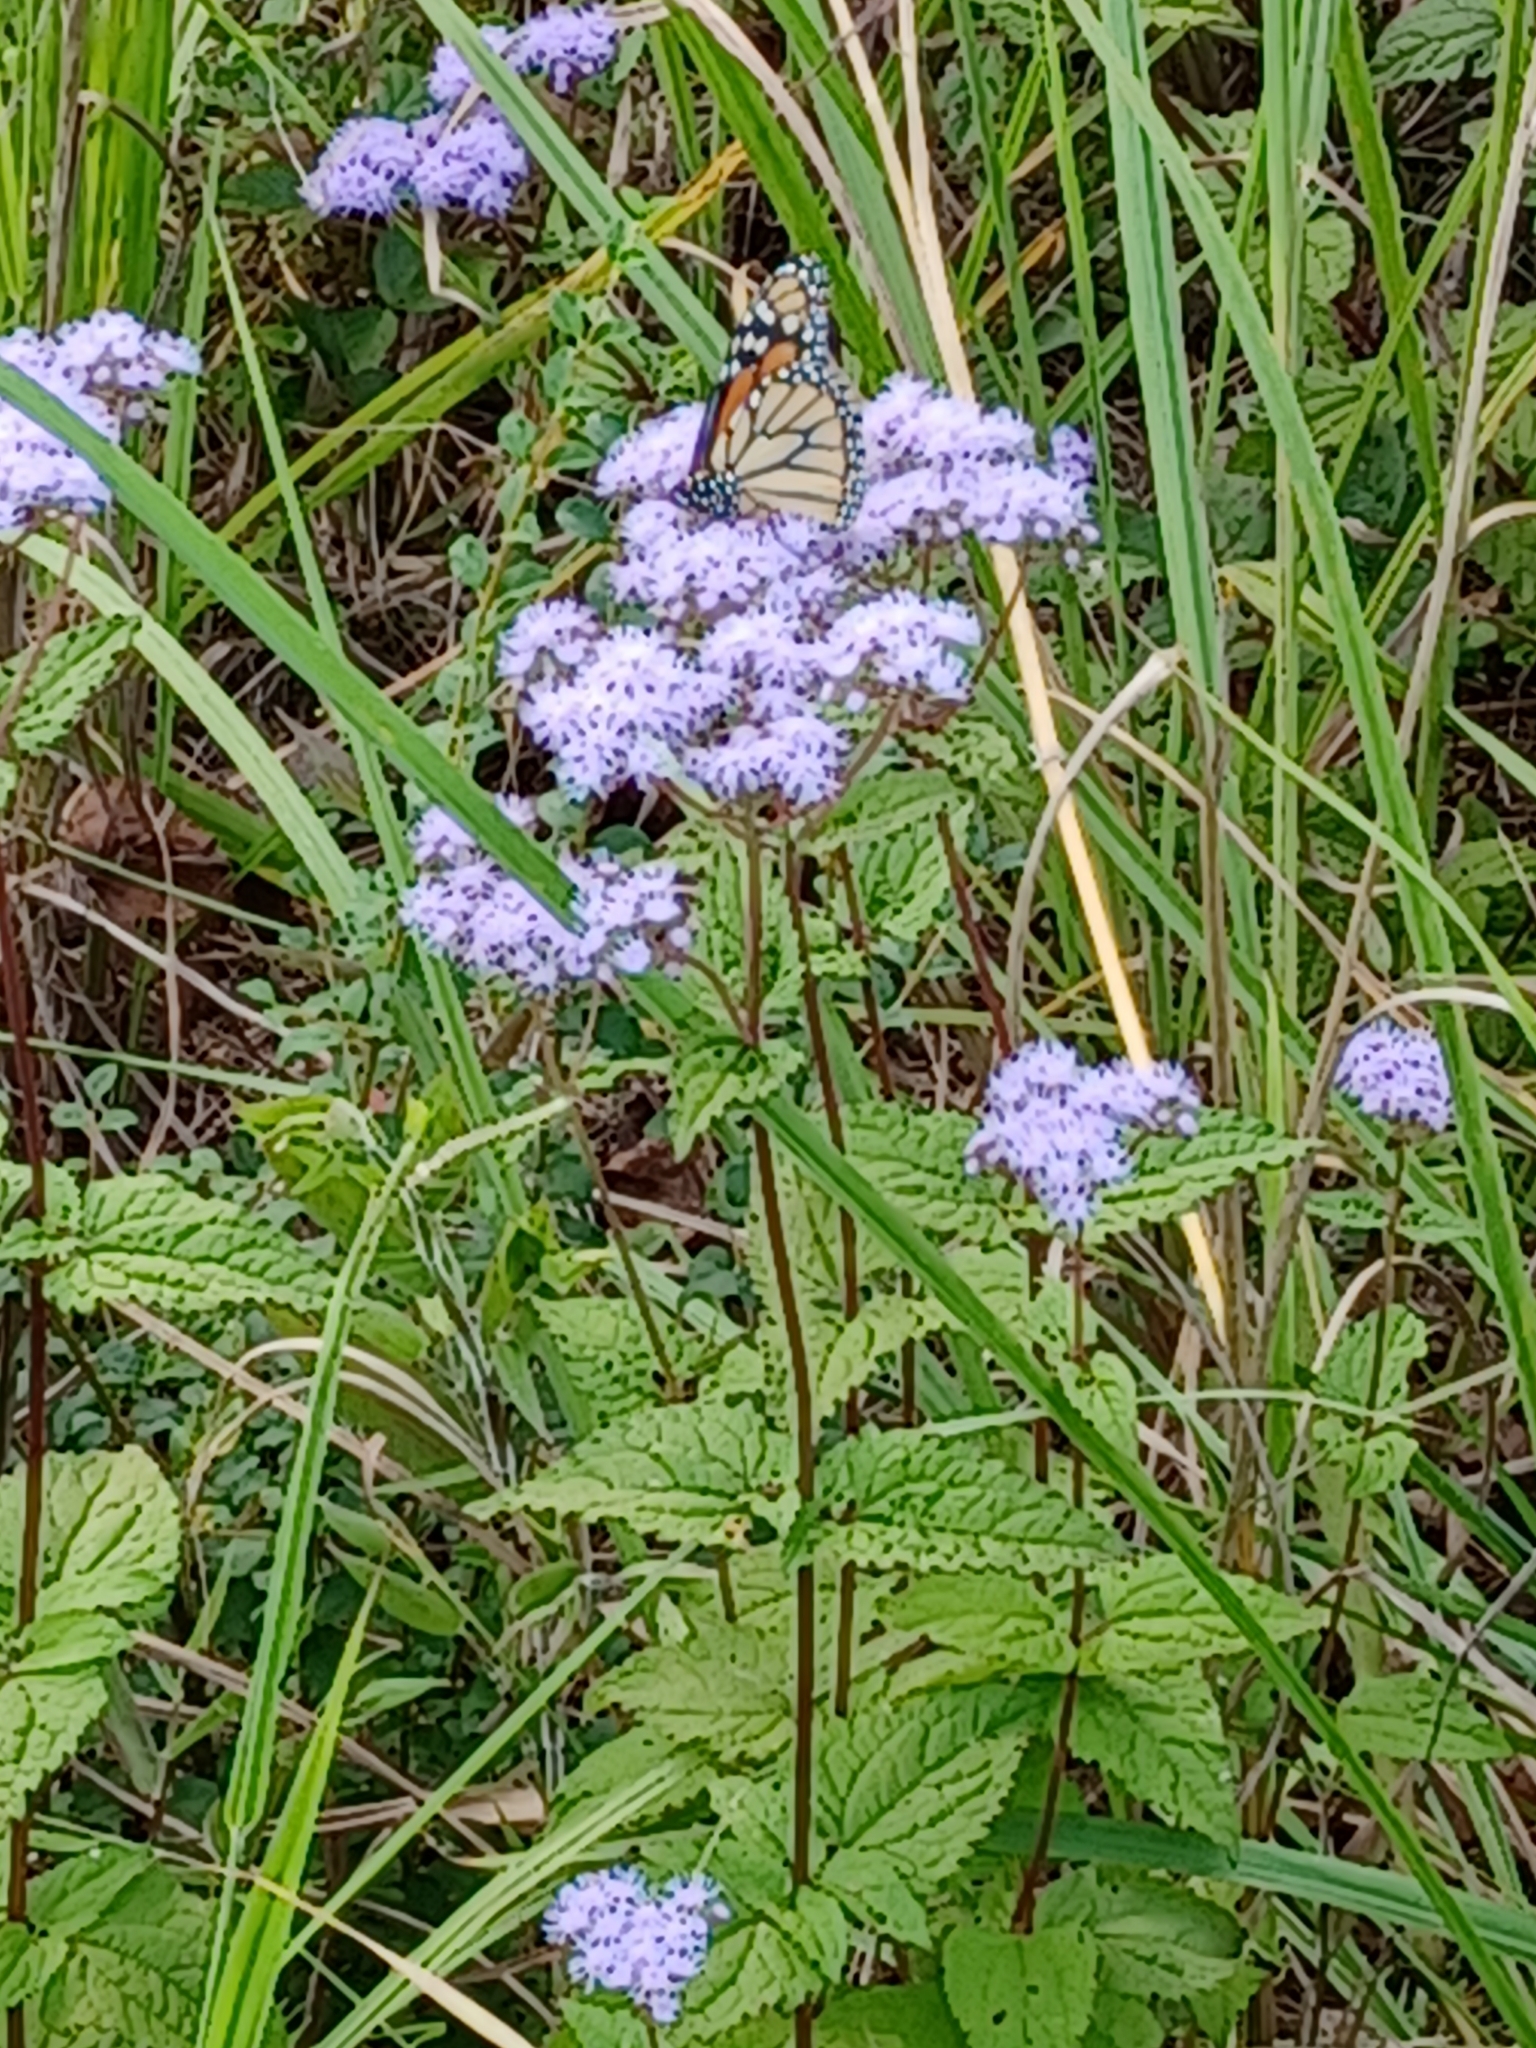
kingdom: Animalia
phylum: Arthropoda
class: Insecta
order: Lepidoptera
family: Nymphalidae
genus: Danaus
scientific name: Danaus plexippus
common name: Monarch
